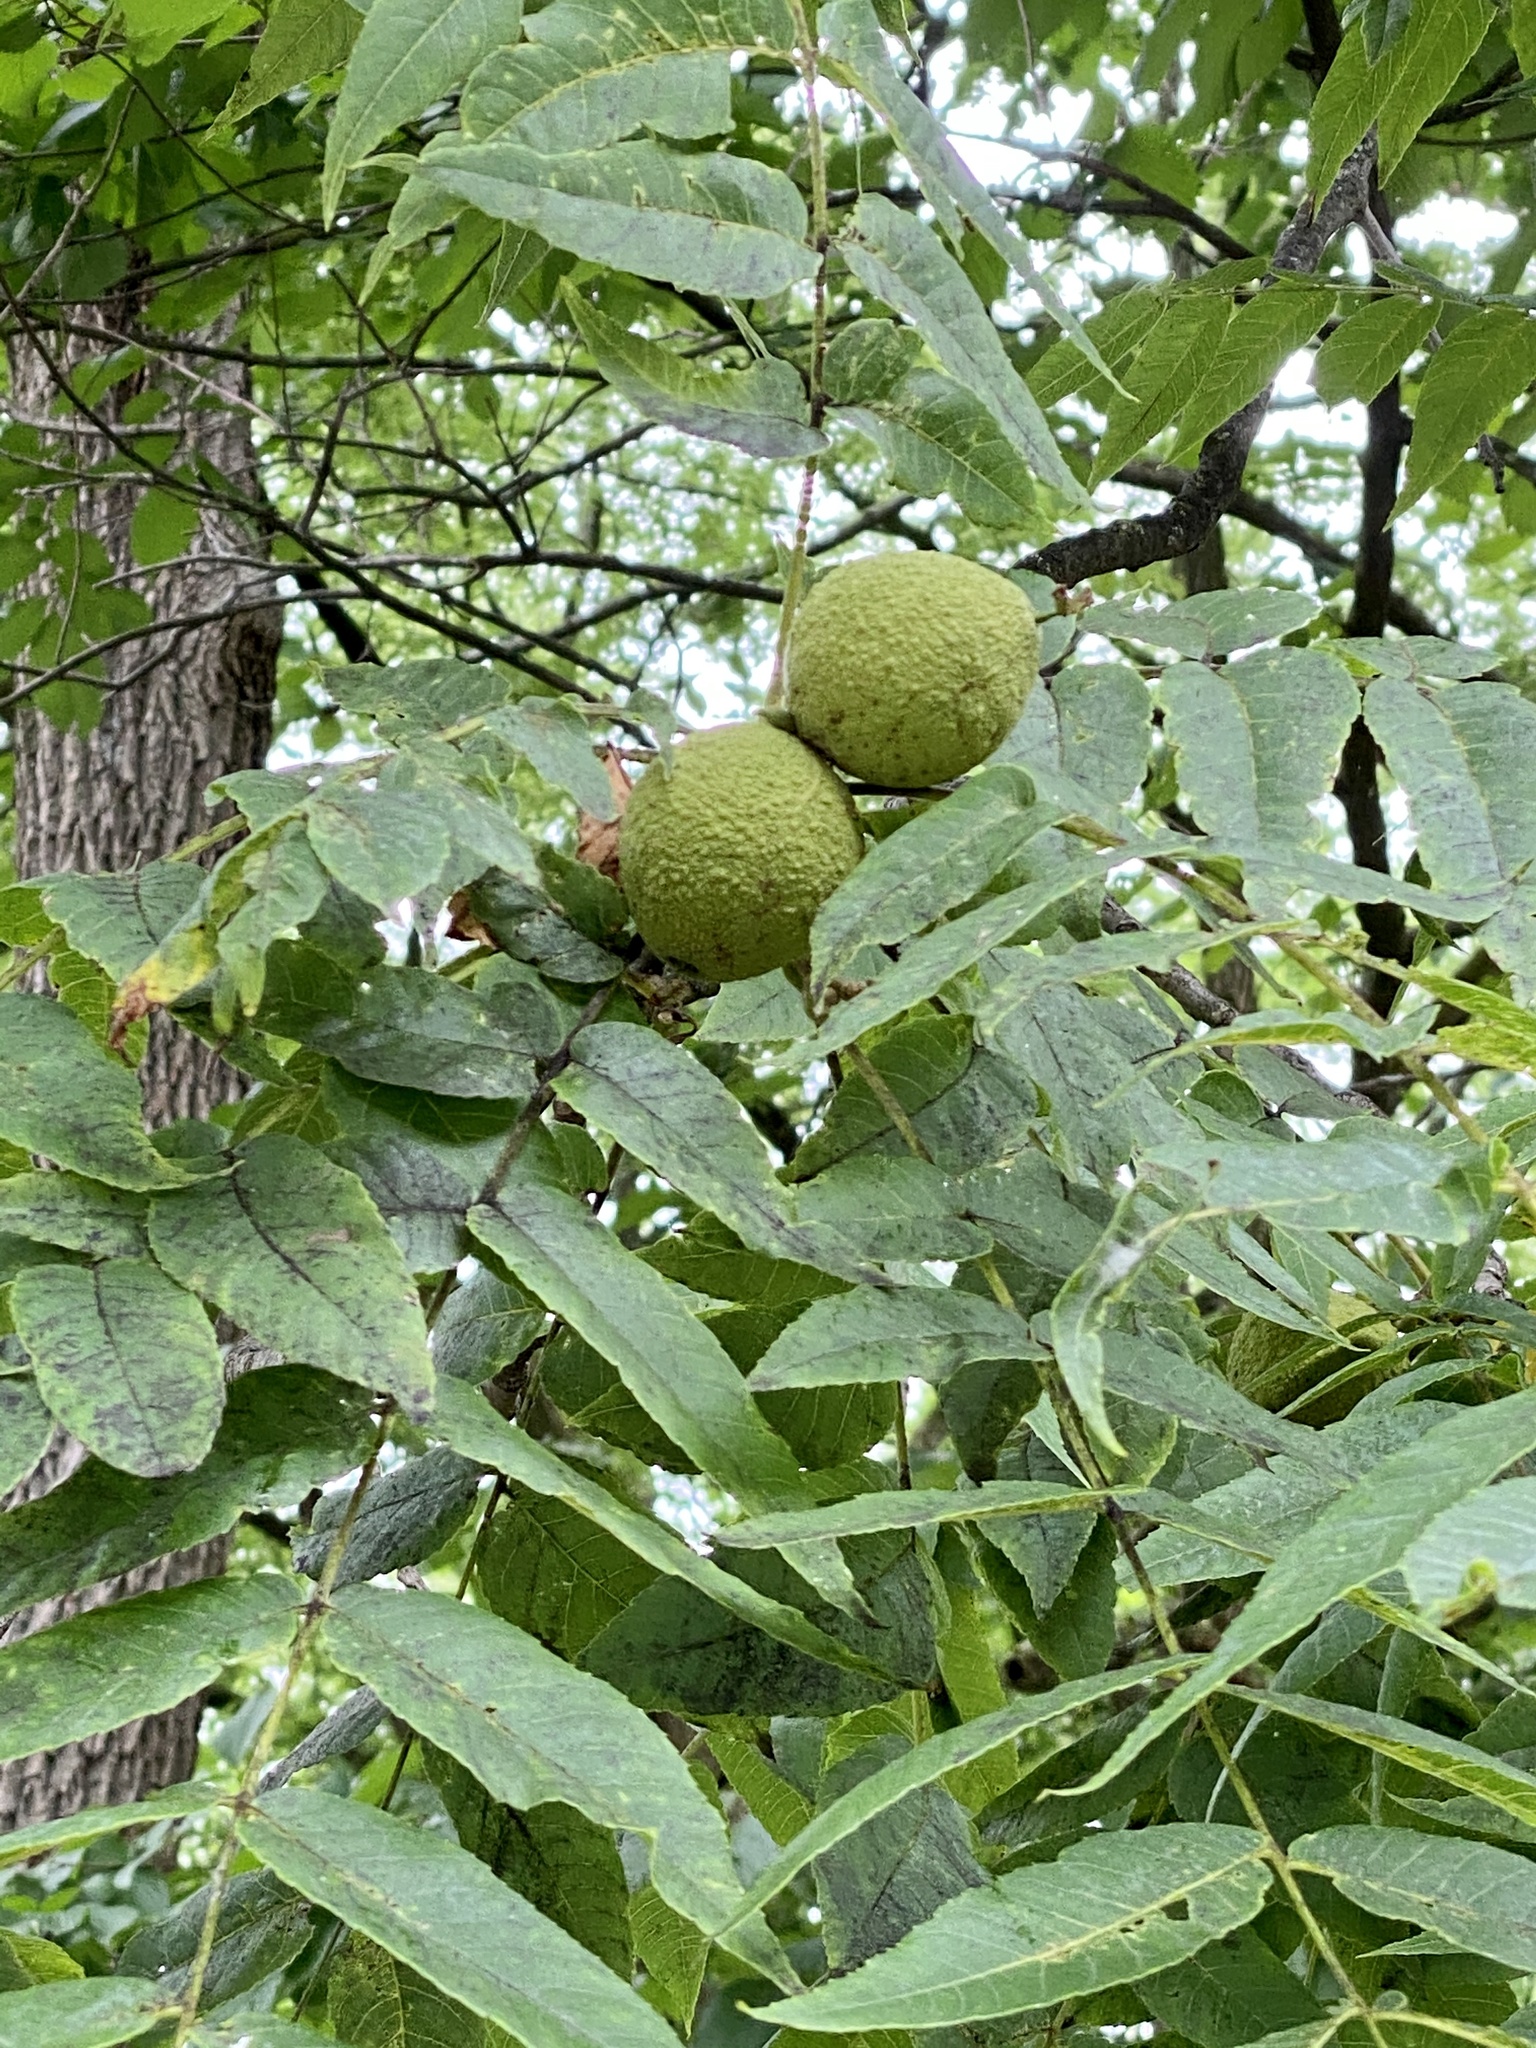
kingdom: Plantae
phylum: Tracheophyta
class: Magnoliopsida
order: Fagales
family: Juglandaceae
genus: Juglans
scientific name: Juglans nigra
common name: Black walnut
